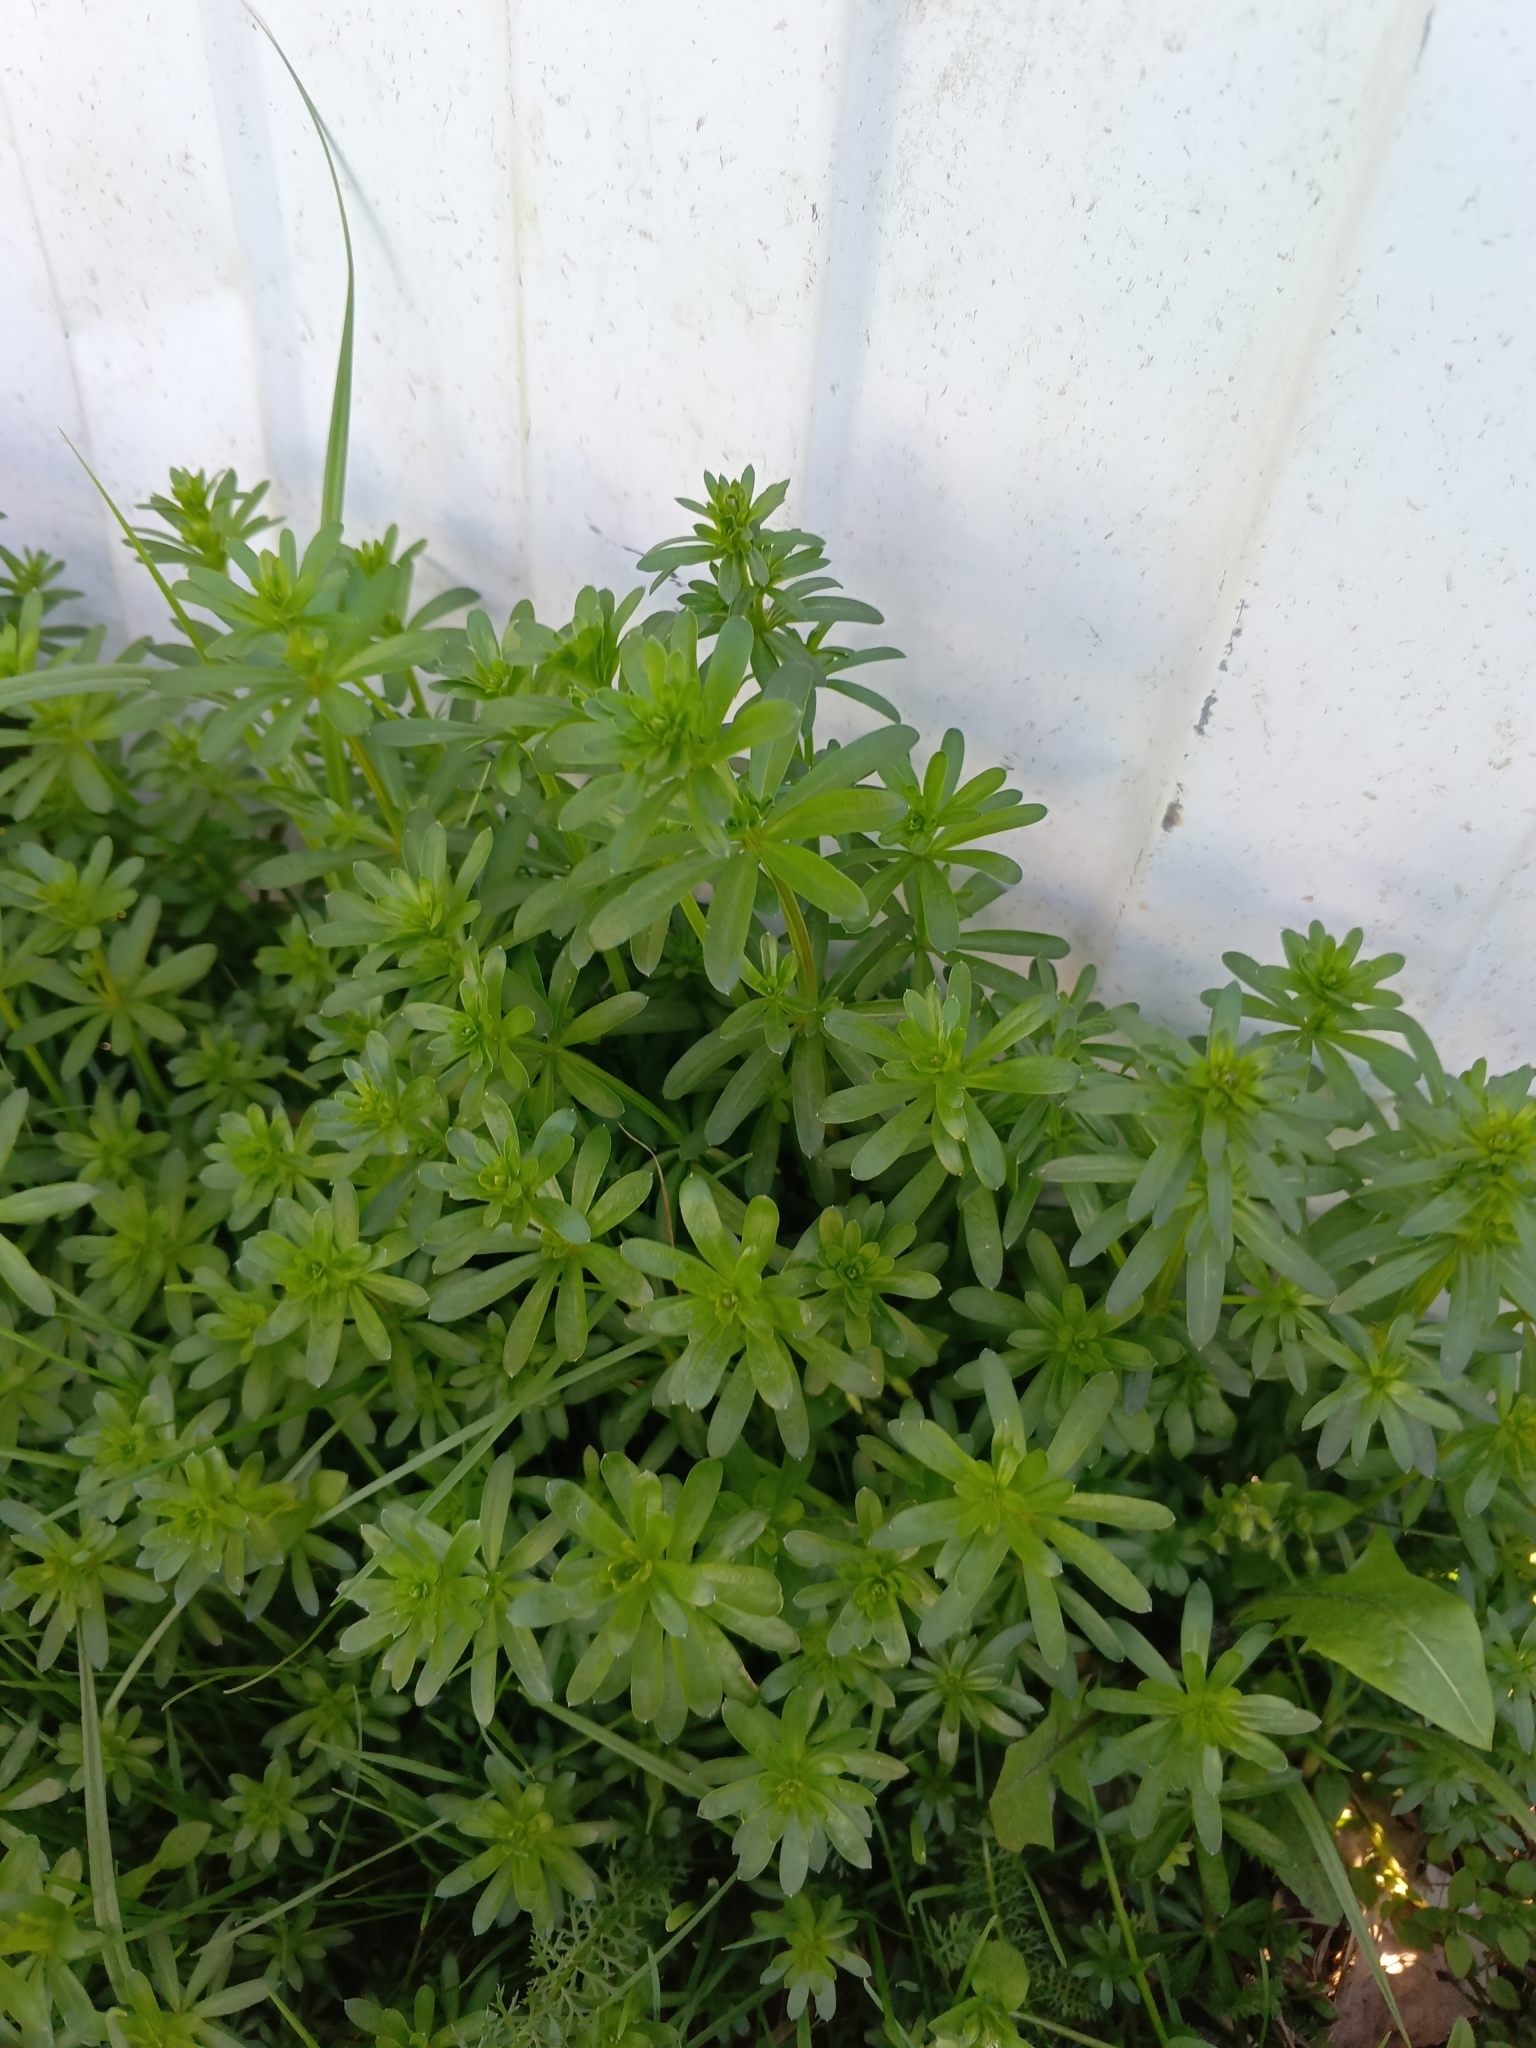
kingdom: Plantae
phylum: Tracheophyta
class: Magnoliopsida
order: Gentianales
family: Rubiaceae
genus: Galium
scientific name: Galium mollugo
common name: Hedge bedstraw
